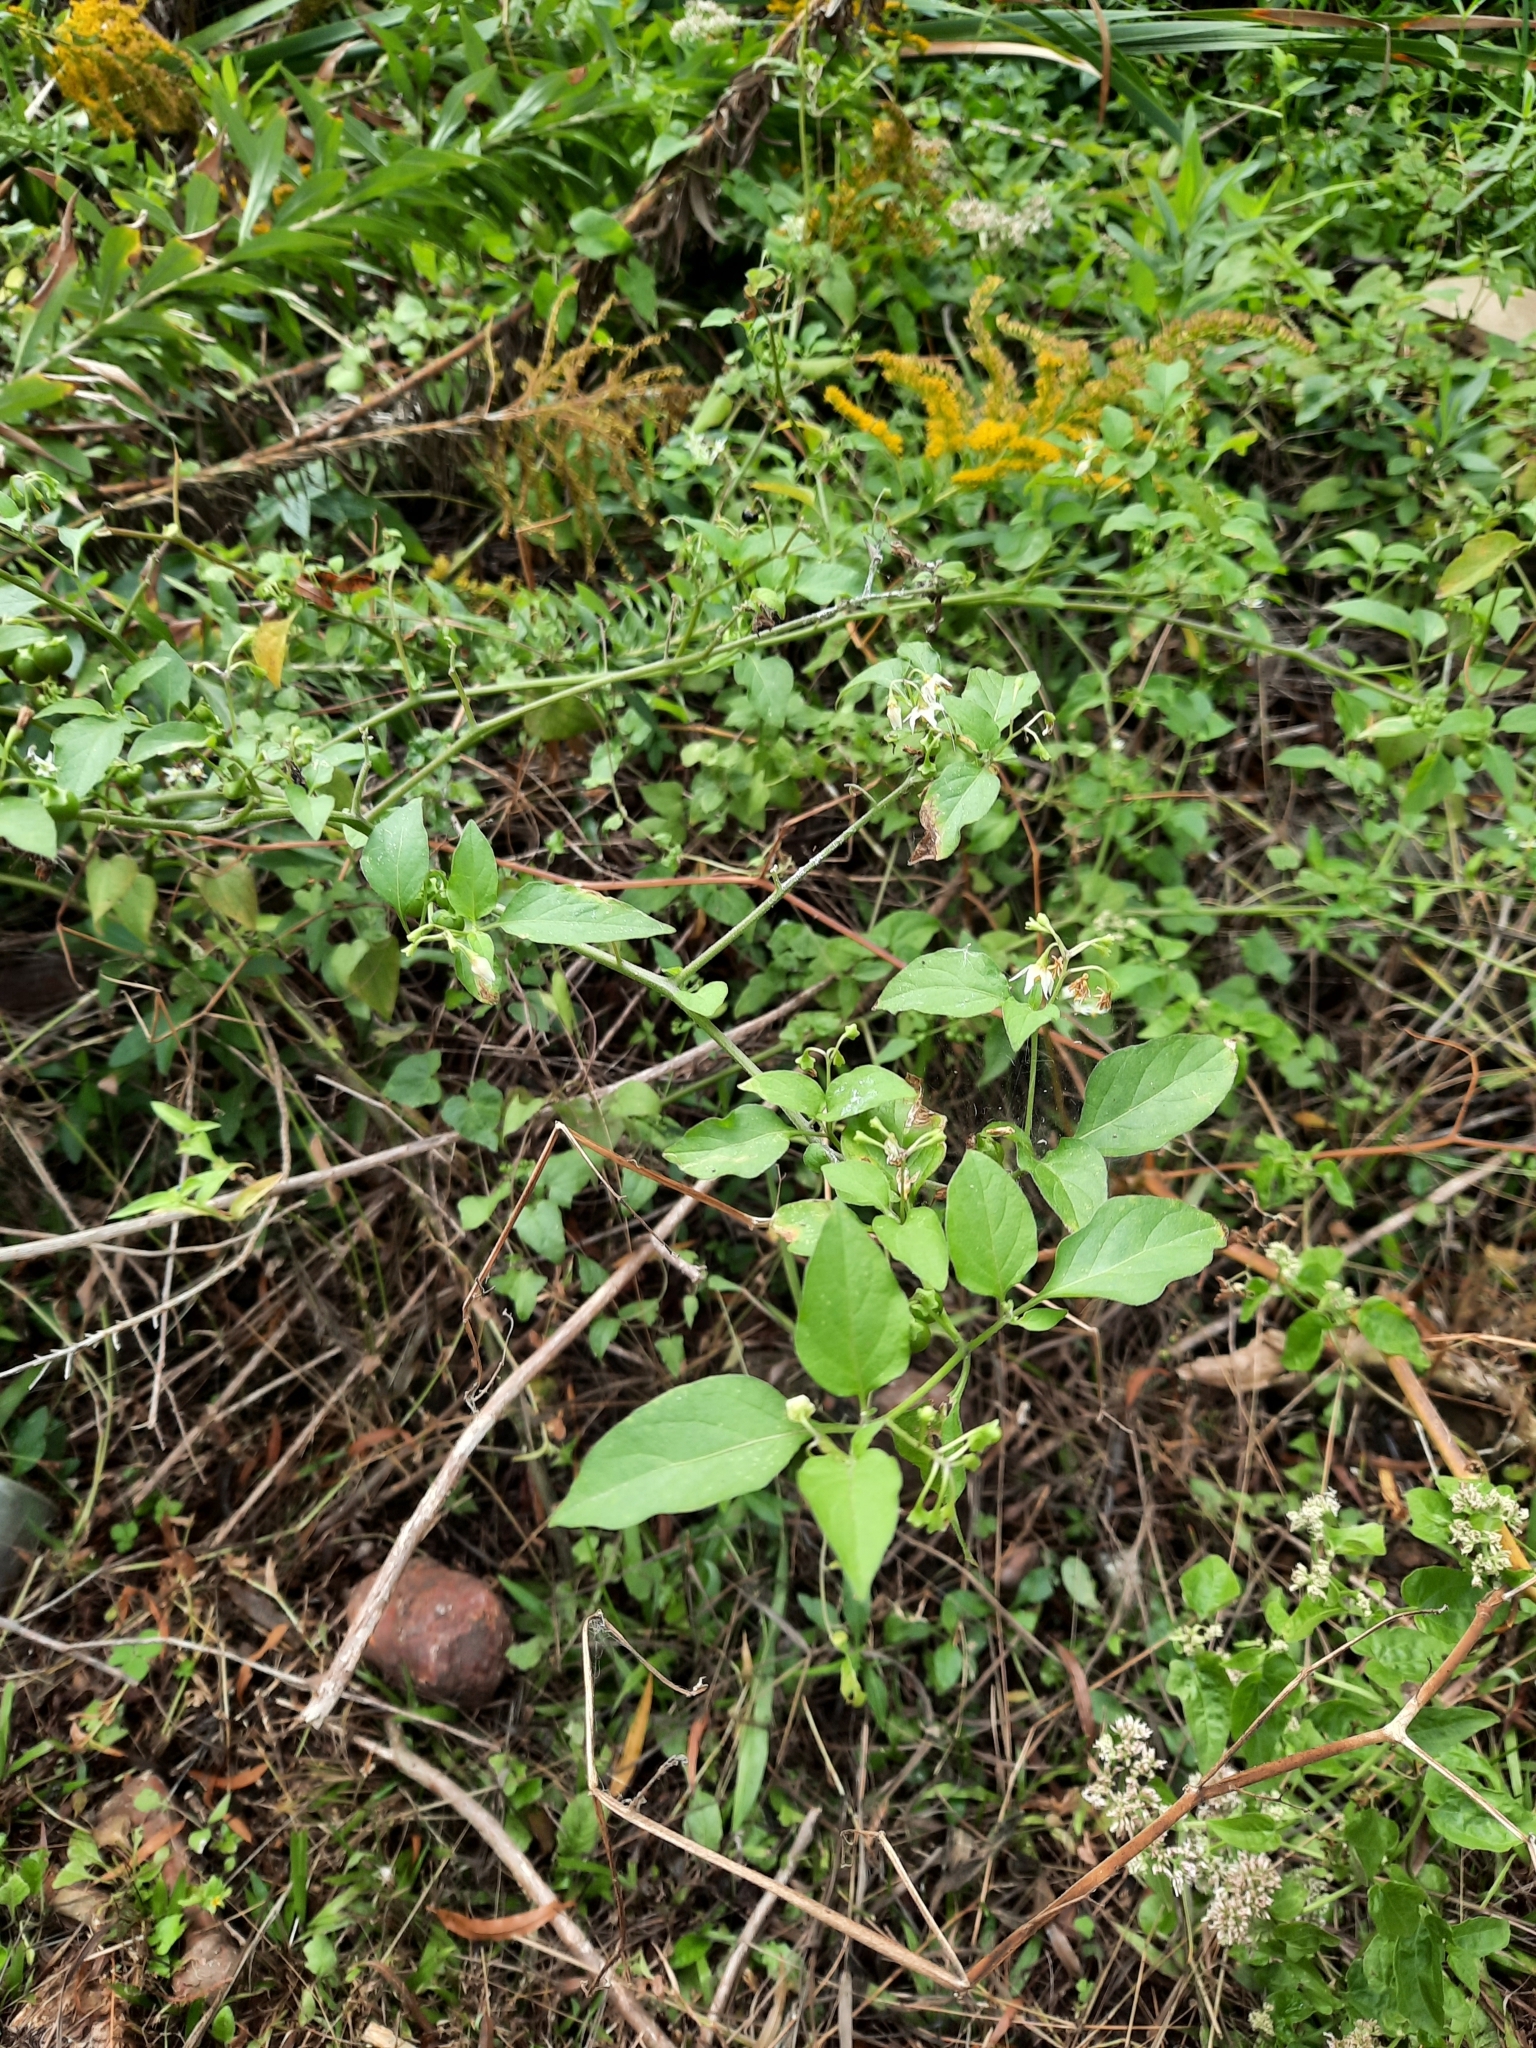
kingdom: Plantae
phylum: Tracheophyta
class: Magnoliopsida
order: Solanales
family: Solanaceae
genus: Solanum
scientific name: Solanum nigrescens
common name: Divine nightshade
